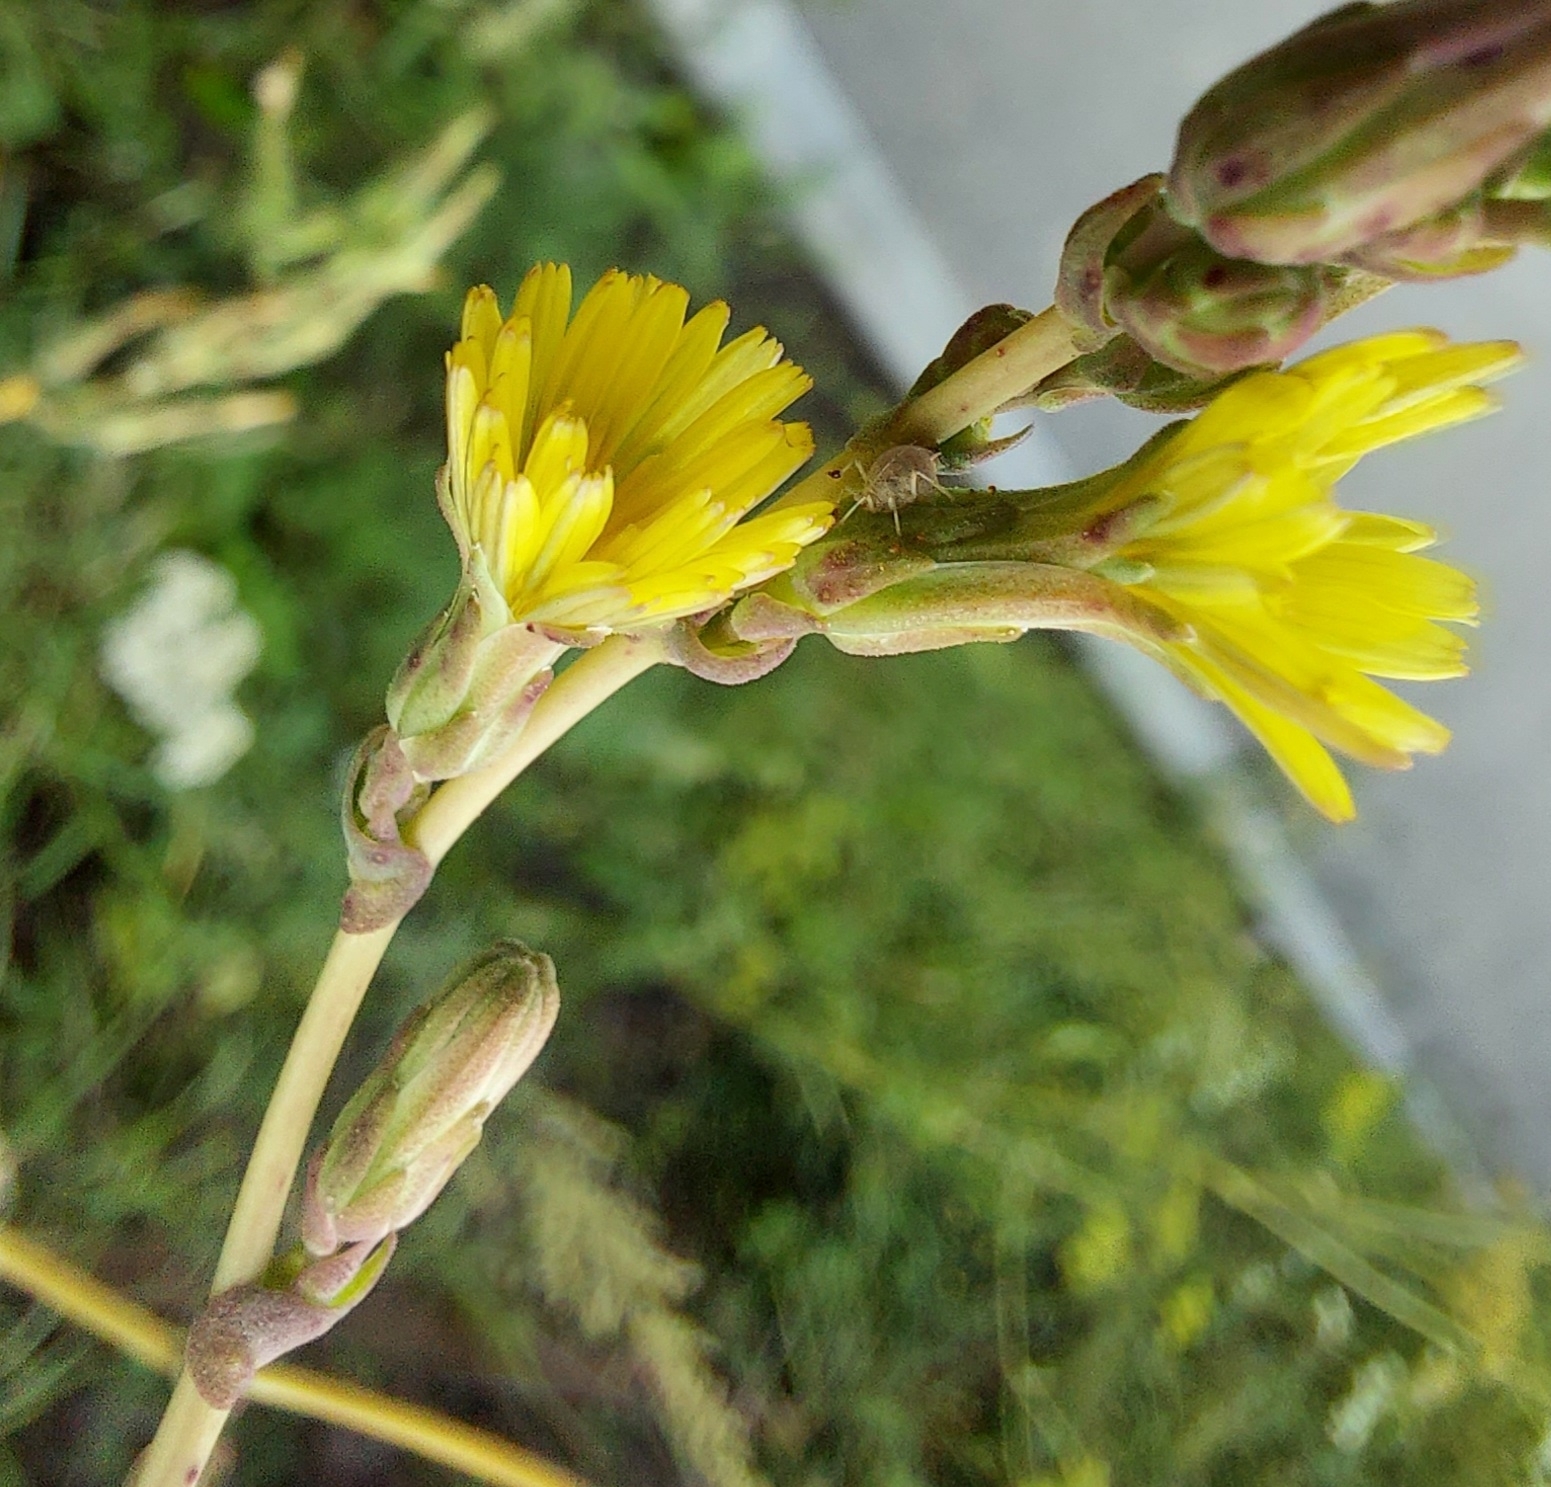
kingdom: Plantae
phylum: Tracheophyta
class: Magnoliopsida
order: Asterales
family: Asteraceae
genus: Lactuca
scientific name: Lactuca serriola
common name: Prickly lettuce
